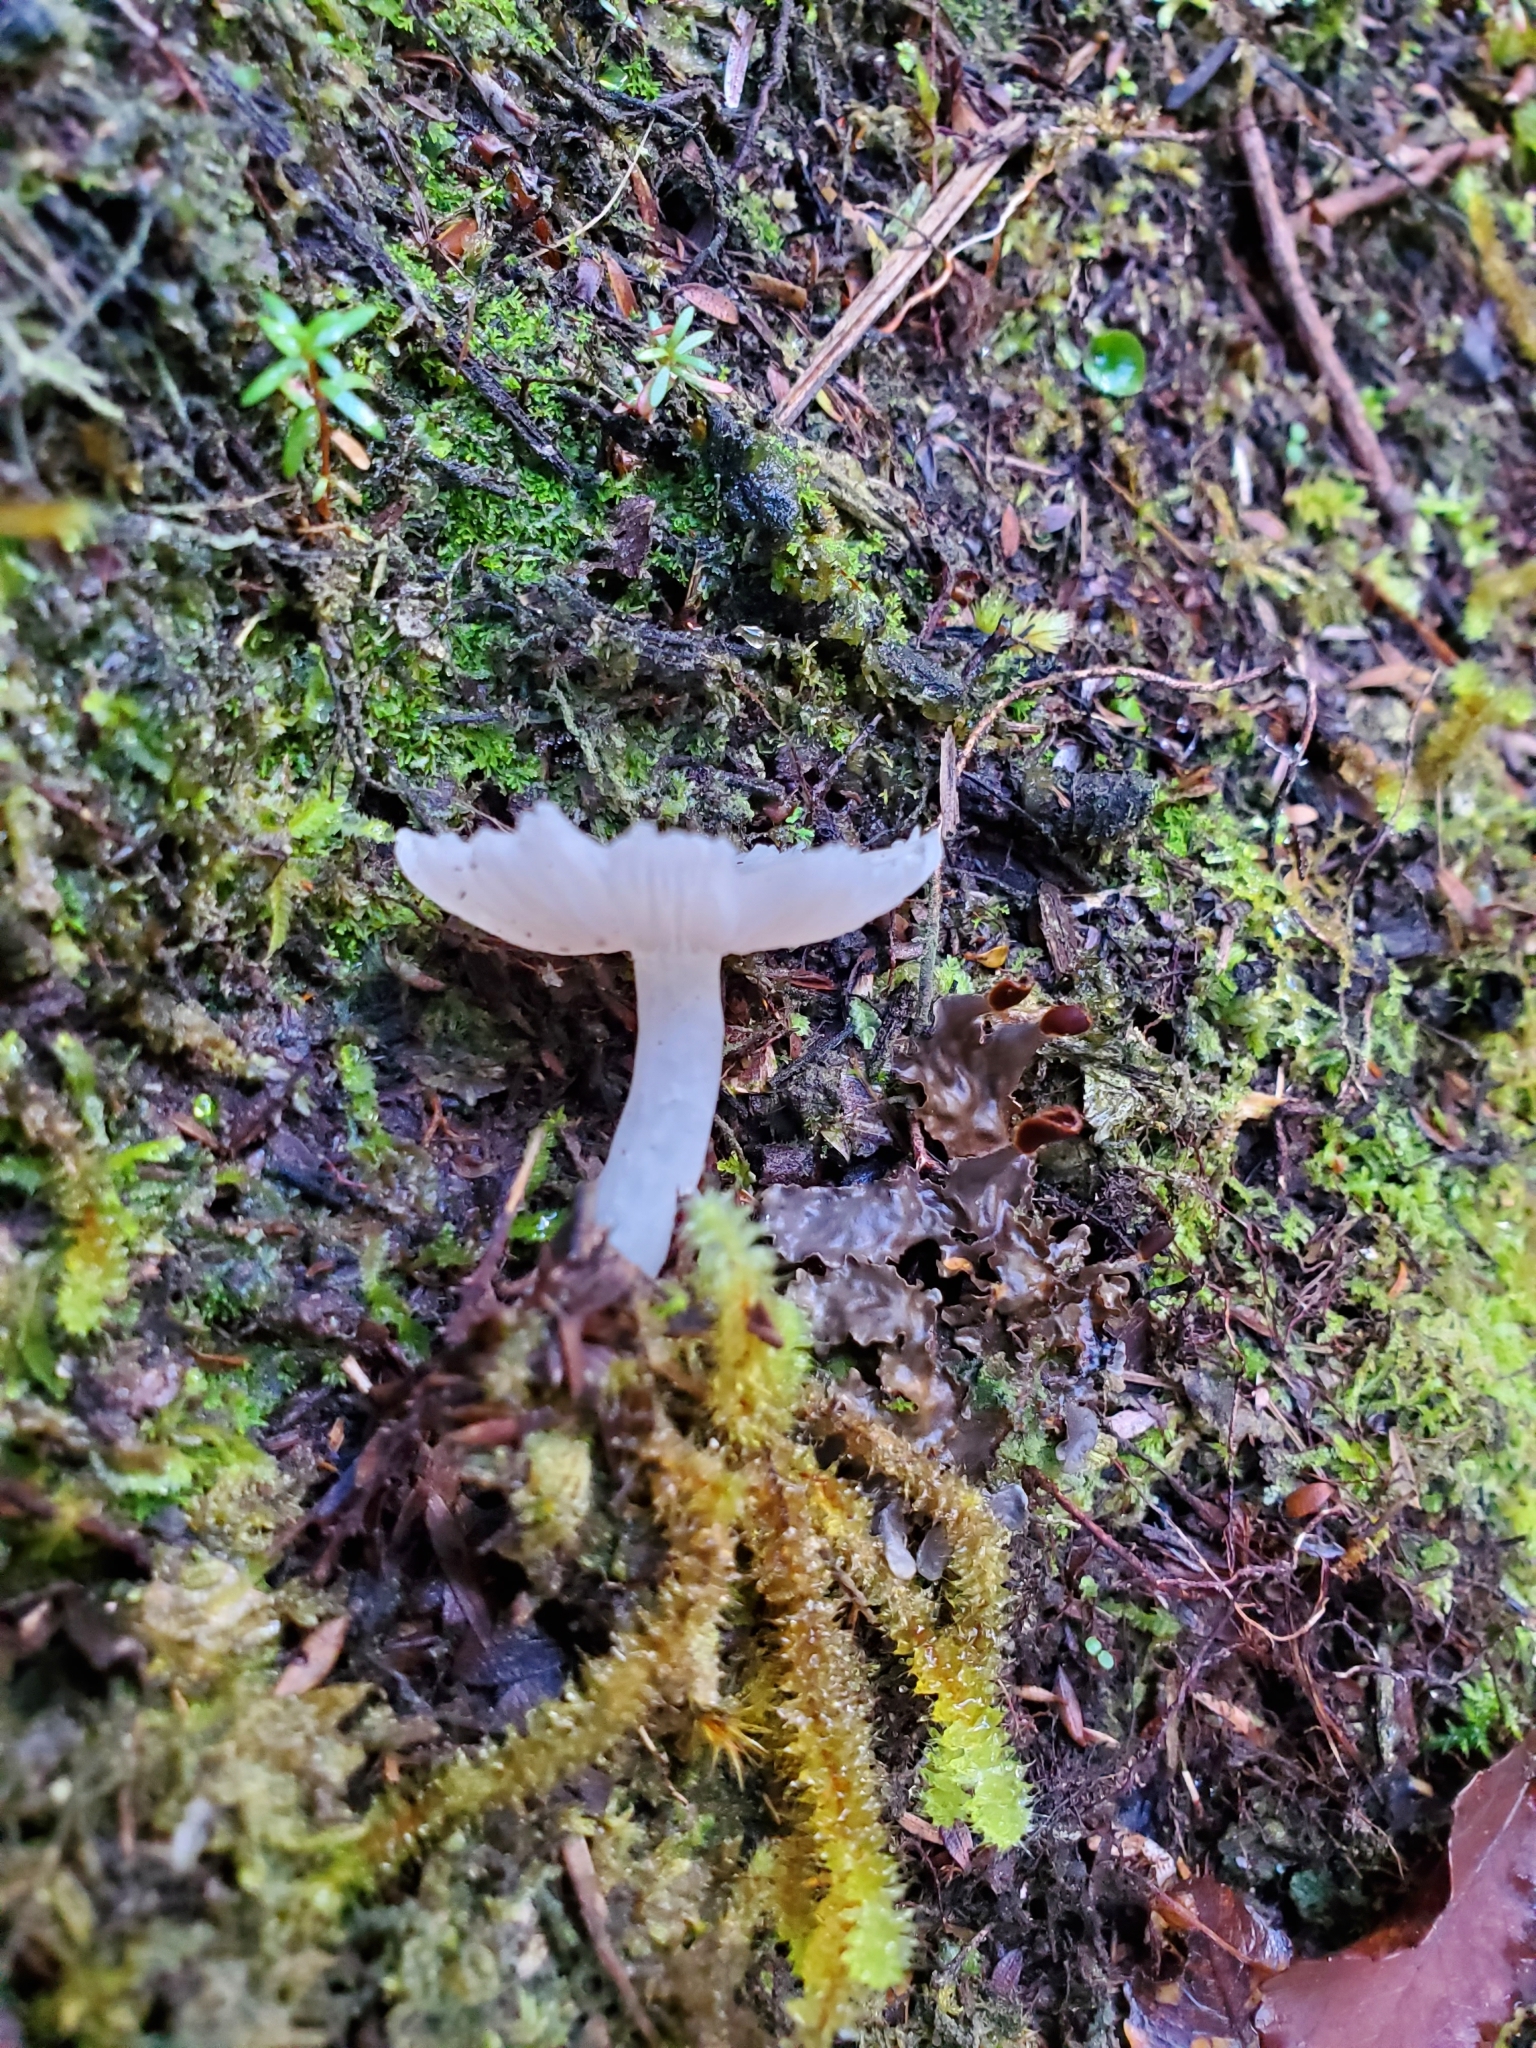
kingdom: Fungi
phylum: Basidiomycota
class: Agaricomycetes
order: Agaricales
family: Hygrophoraceae
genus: Humidicutis
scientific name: Humidicutis mavis
